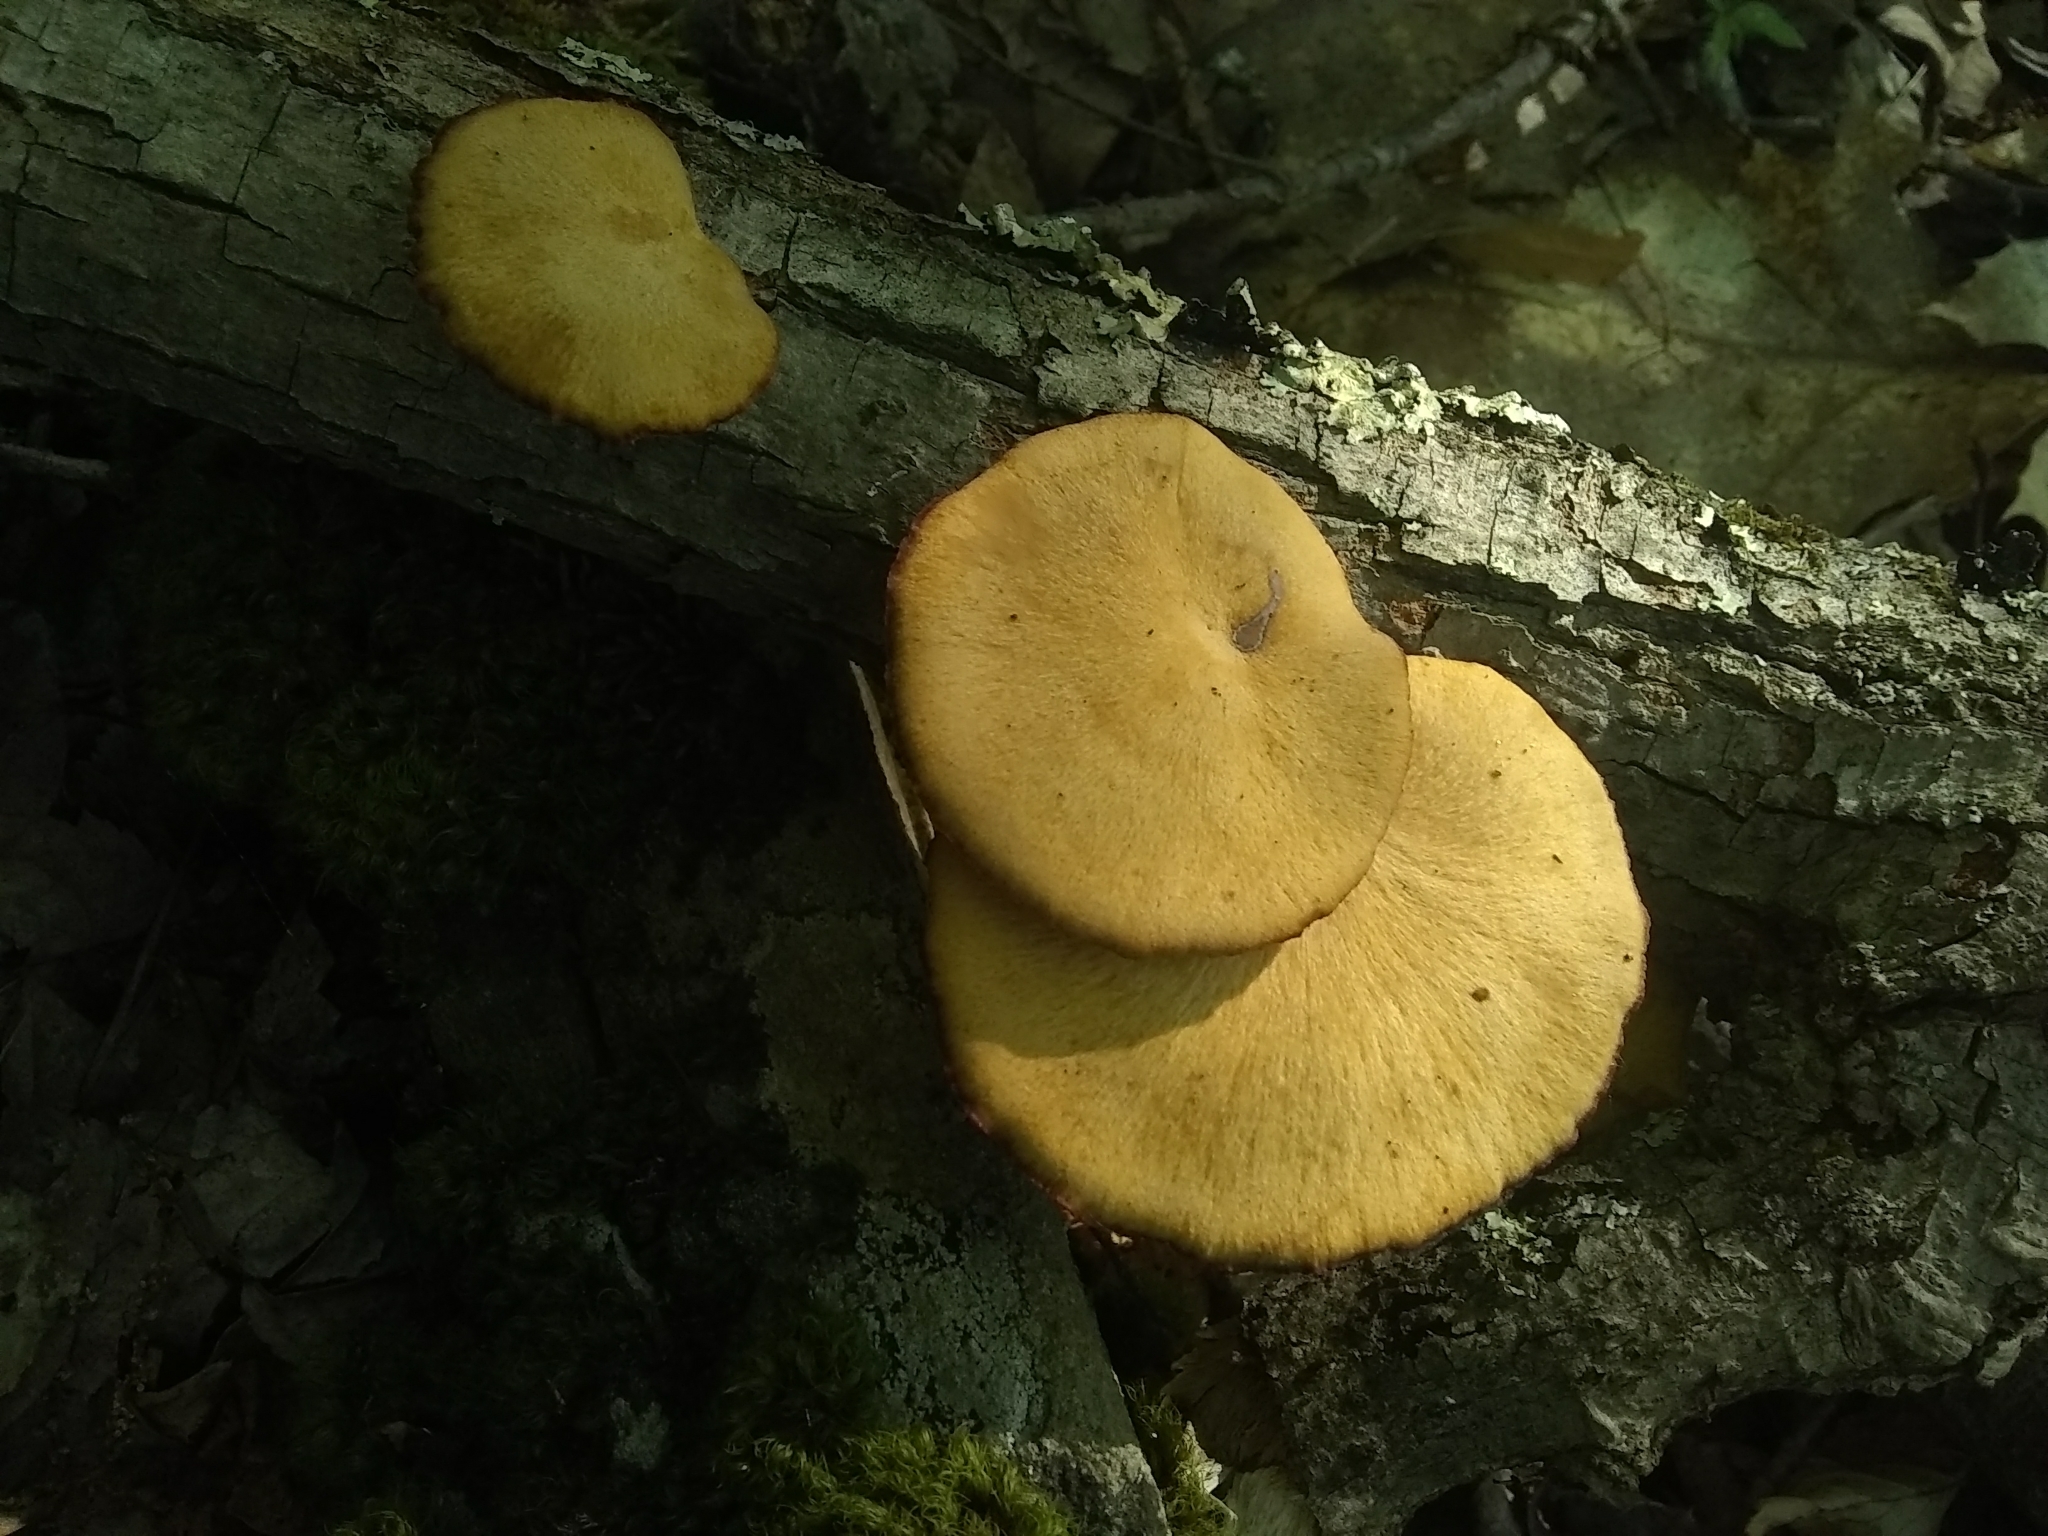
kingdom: Fungi
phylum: Basidiomycota
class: Agaricomycetes
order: Polyporales
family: Polyporaceae
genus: Cerioporus
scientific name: Cerioporus leptocephalus
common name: Blackfoot polypore
